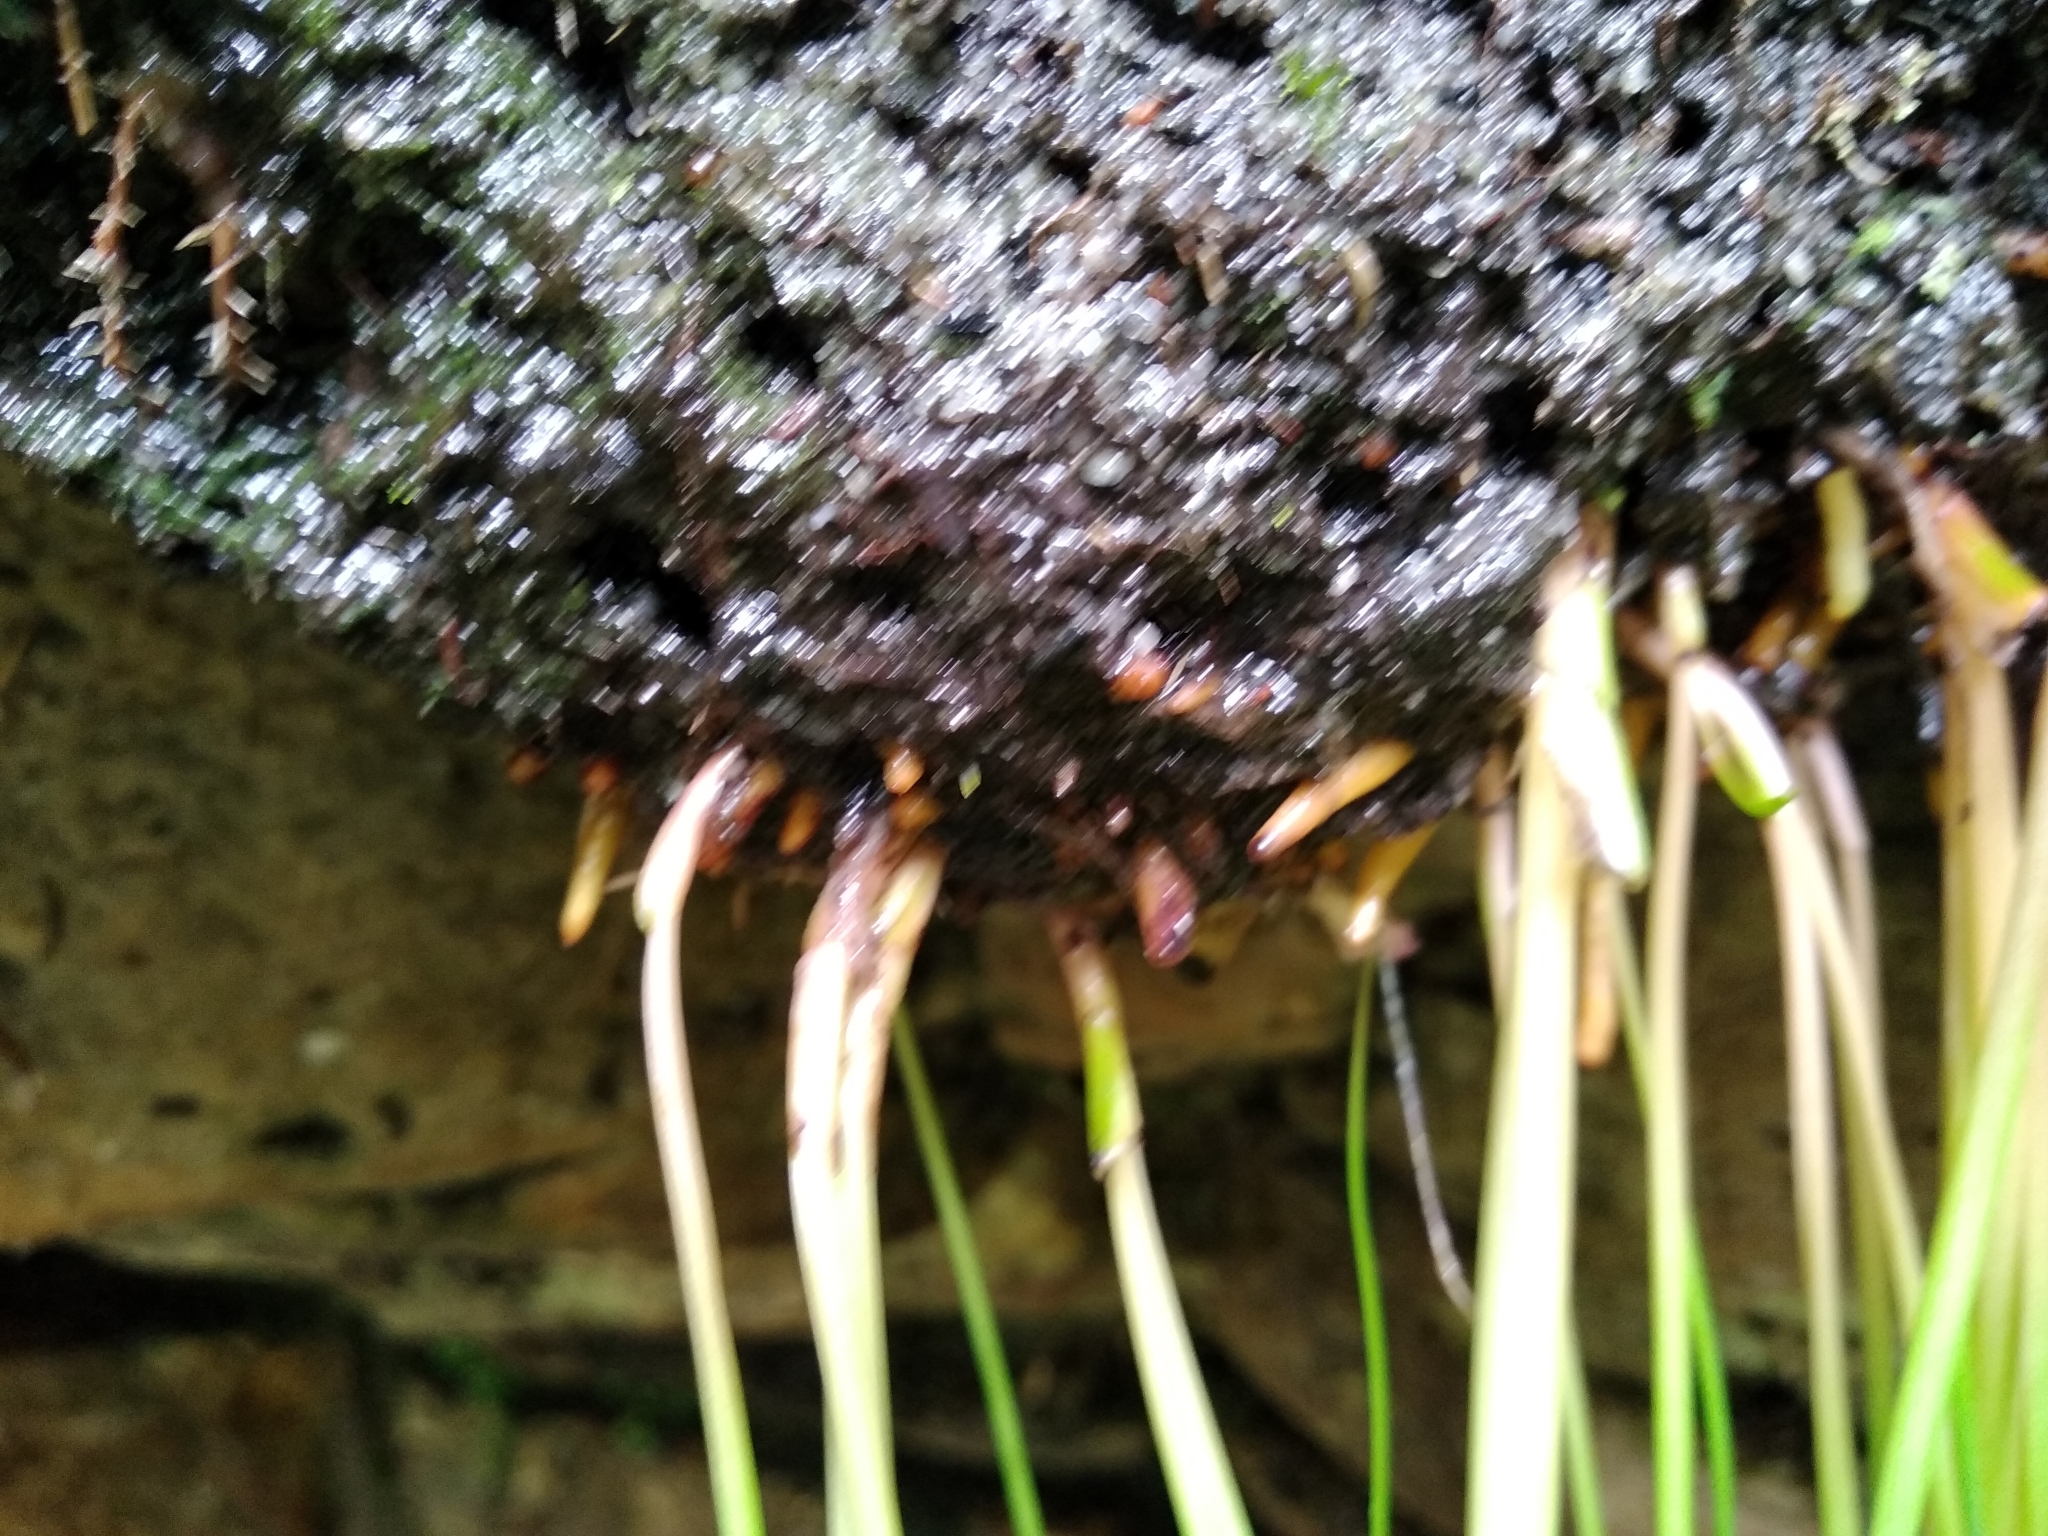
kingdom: Plantae
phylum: Tracheophyta
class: Liliopsida
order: Asparagales
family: Asphodelaceae
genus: Trachyandra
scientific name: Trachyandra tabularis
